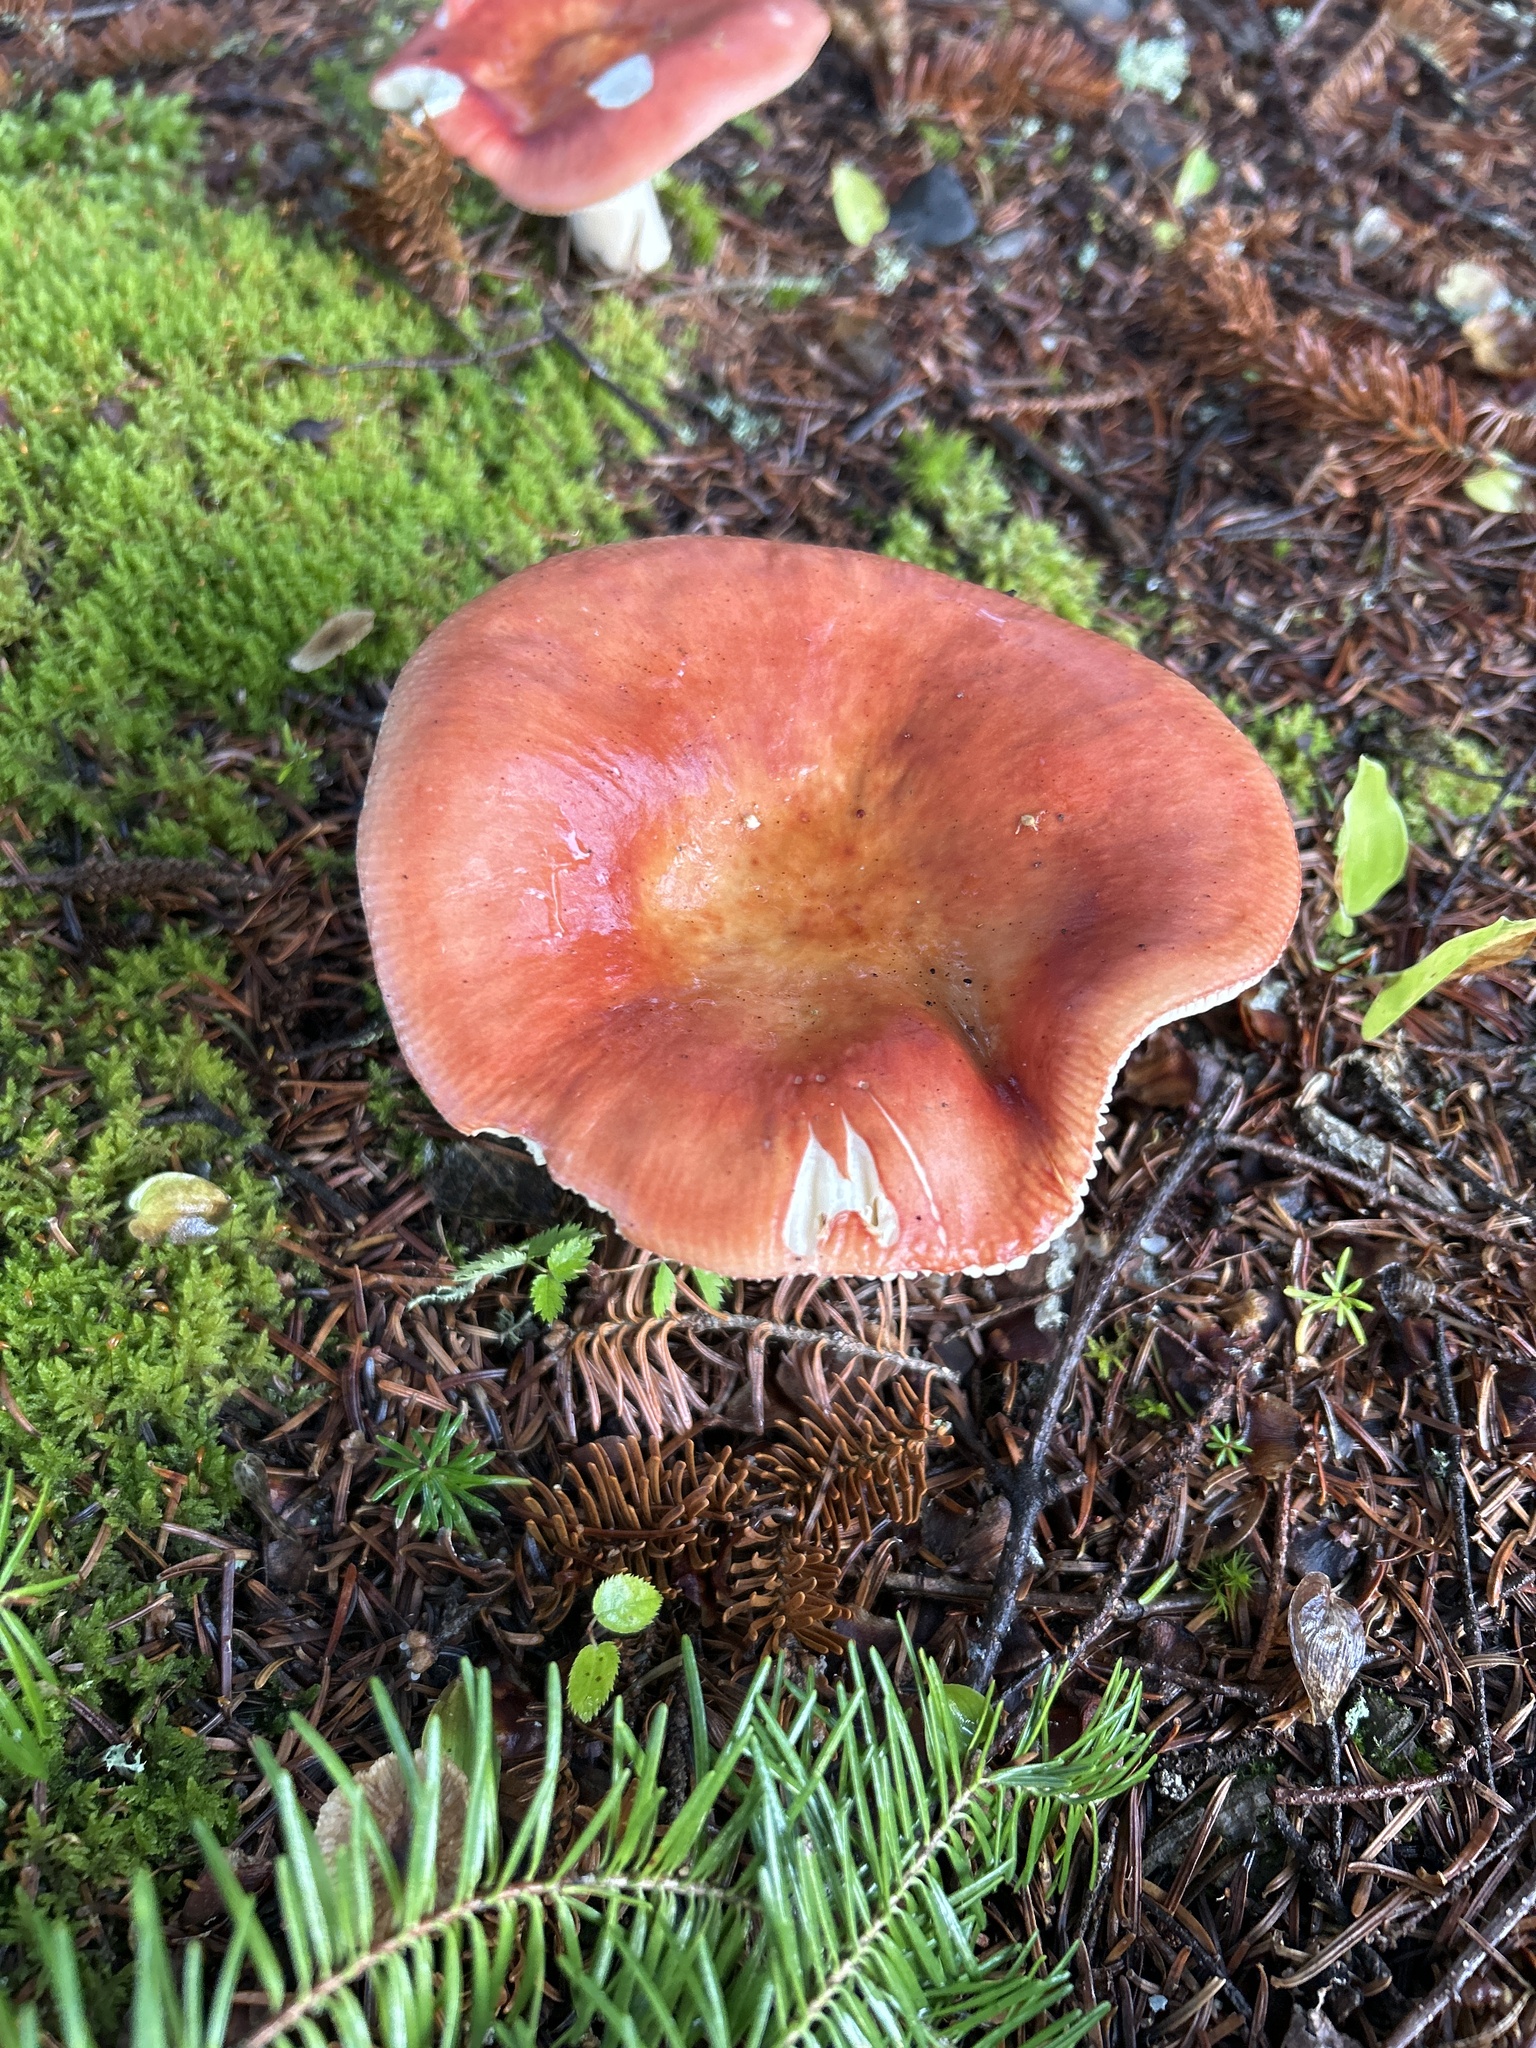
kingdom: Fungi
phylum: Basidiomycota
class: Agaricomycetes
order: Russulales
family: Russulaceae
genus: Russula
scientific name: Russula paludosa
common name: Hintapink
